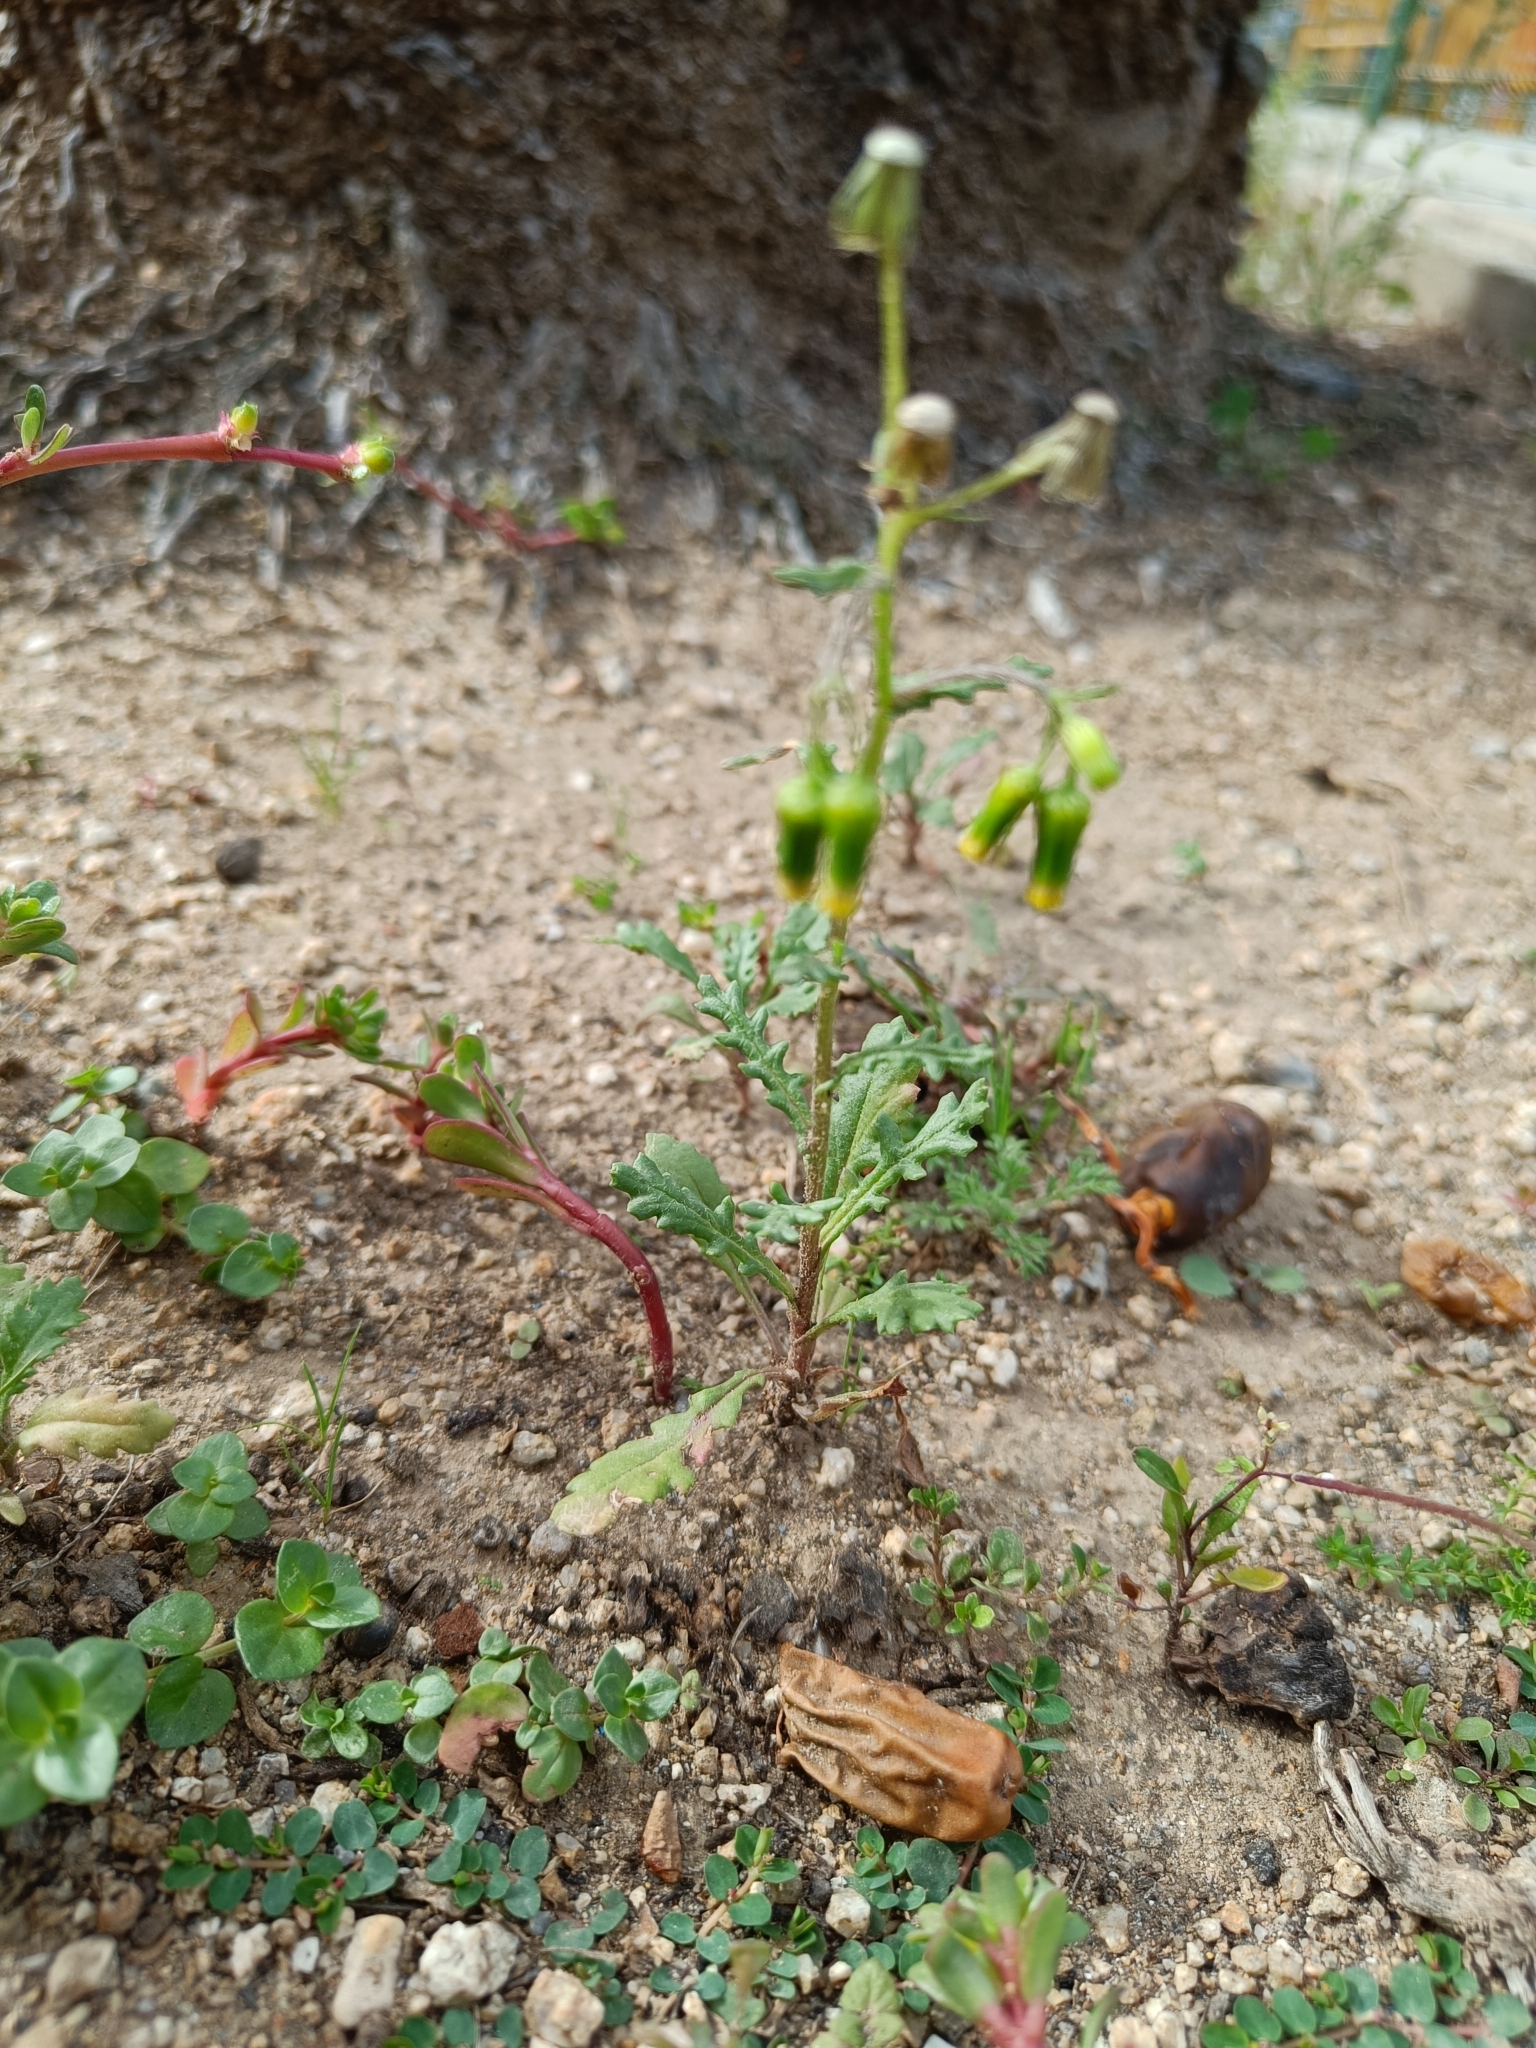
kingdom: Plantae
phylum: Tracheophyta
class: Magnoliopsida
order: Asterales
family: Asteraceae
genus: Senecio
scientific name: Senecio vulgaris
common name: Old-man-in-the-spring
